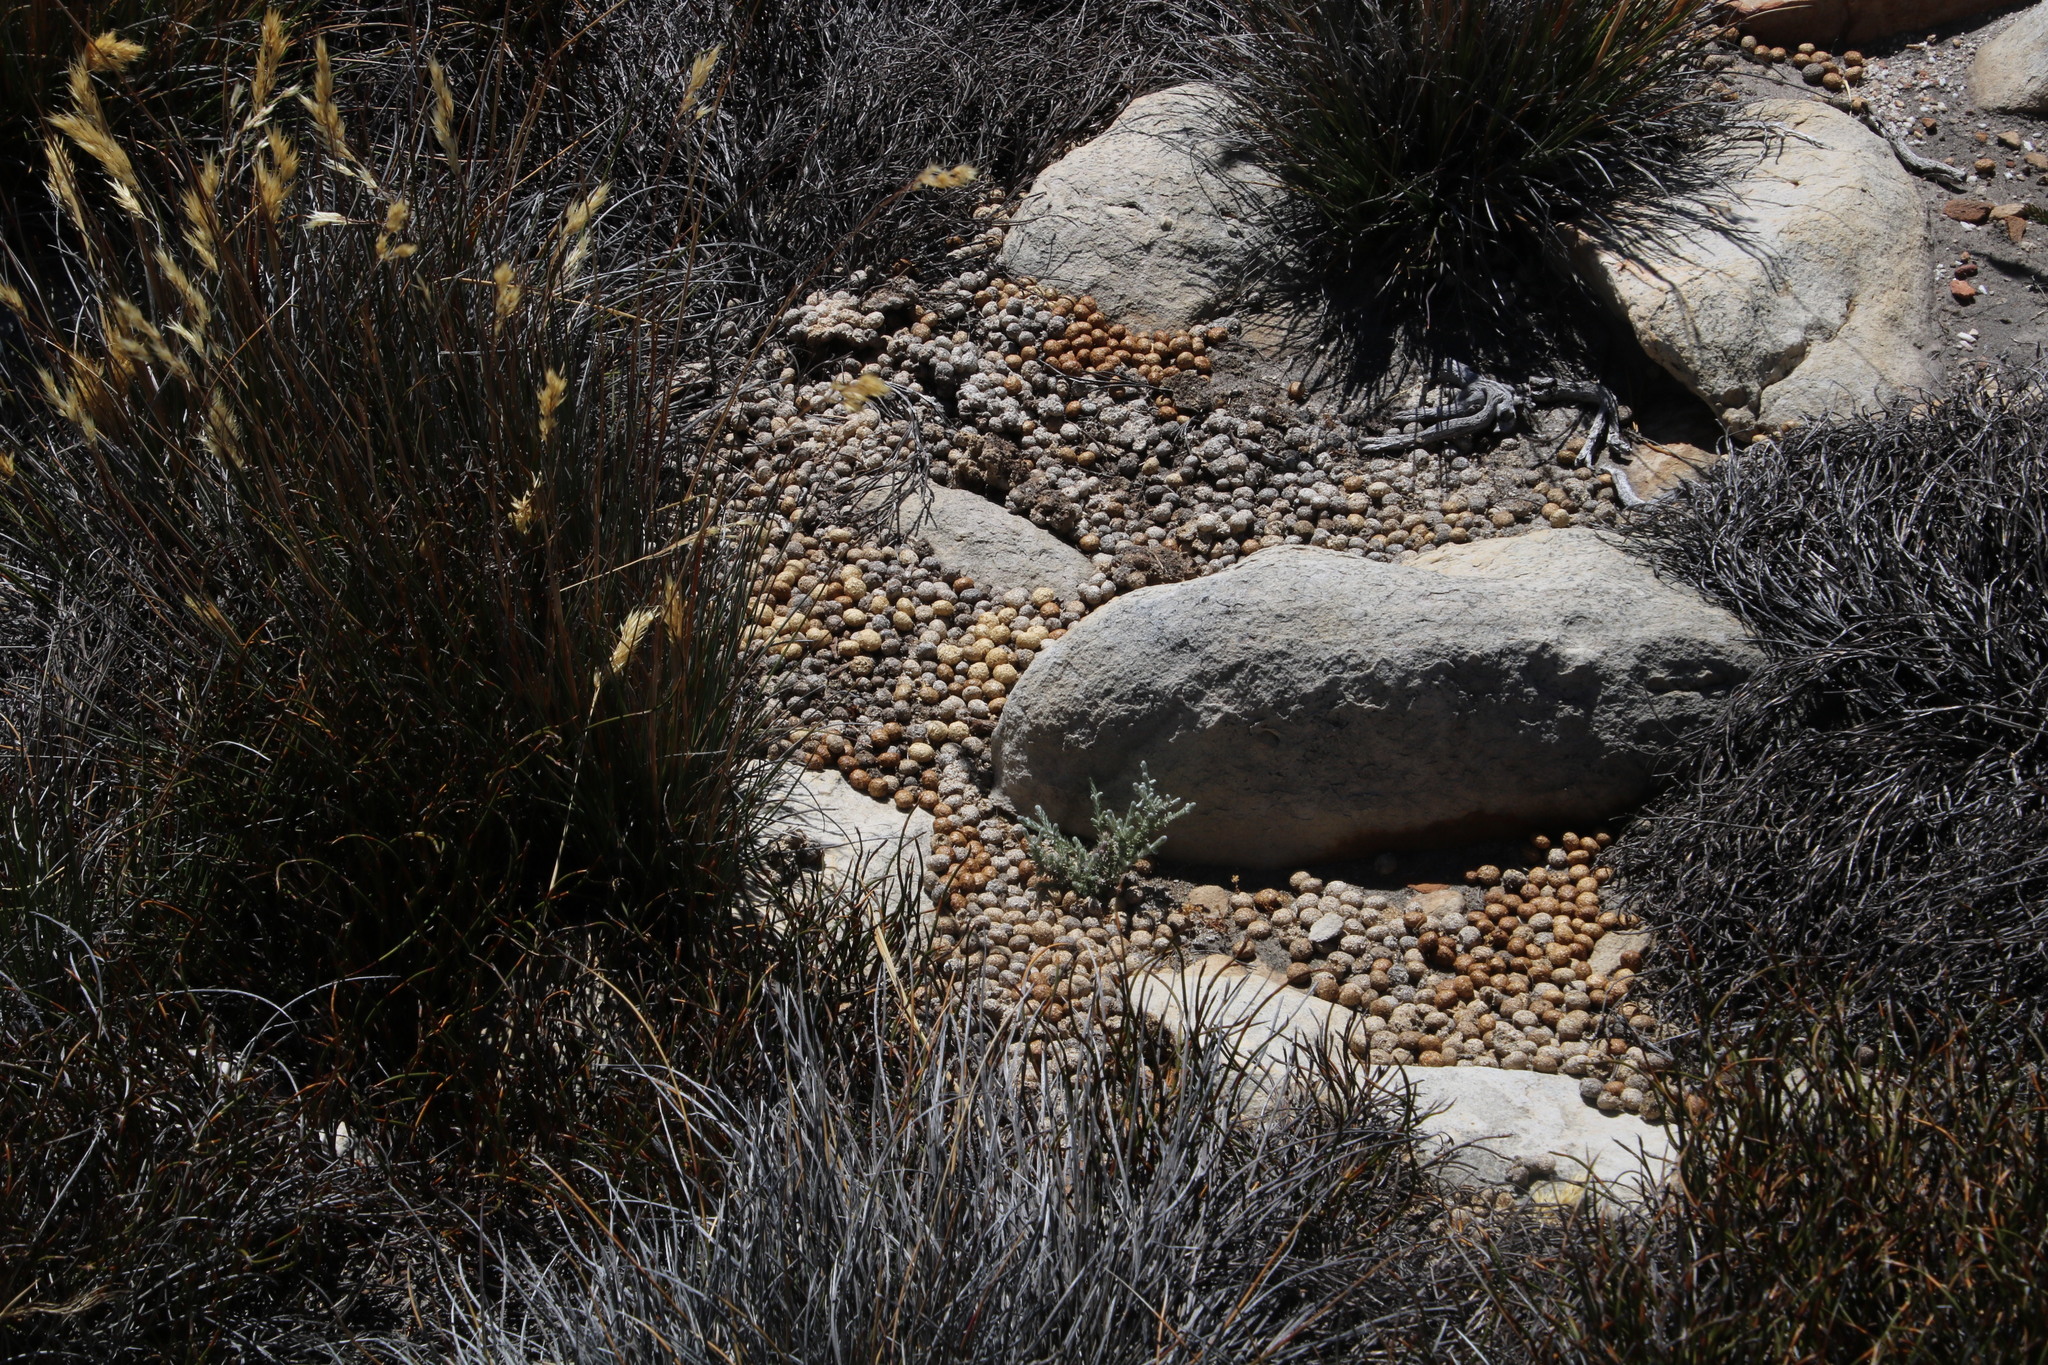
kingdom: Animalia
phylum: Chordata
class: Mammalia
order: Lagomorpha
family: Leporidae
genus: Pronolagus
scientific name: Pronolagus saundersiae
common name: Hewitt's red rock hare
